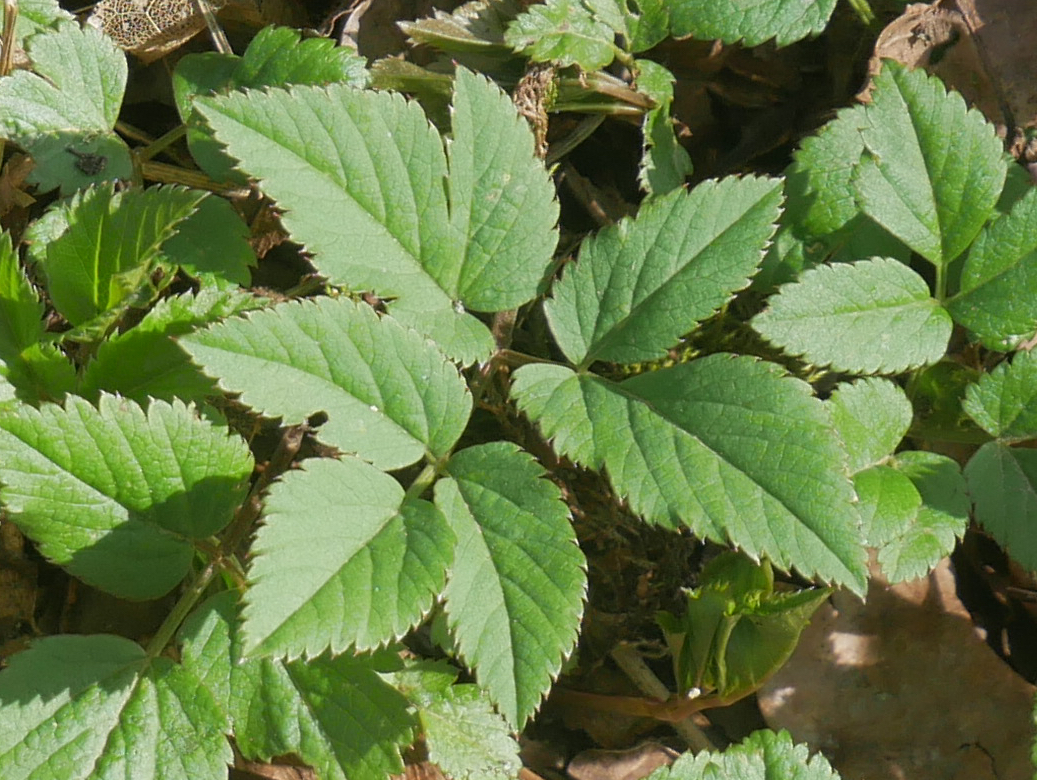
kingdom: Plantae
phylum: Tracheophyta
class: Magnoliopsida
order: Apiales
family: Apiaceae
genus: Aegopodium
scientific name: Aegopodium podagraria
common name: Ground-elder
